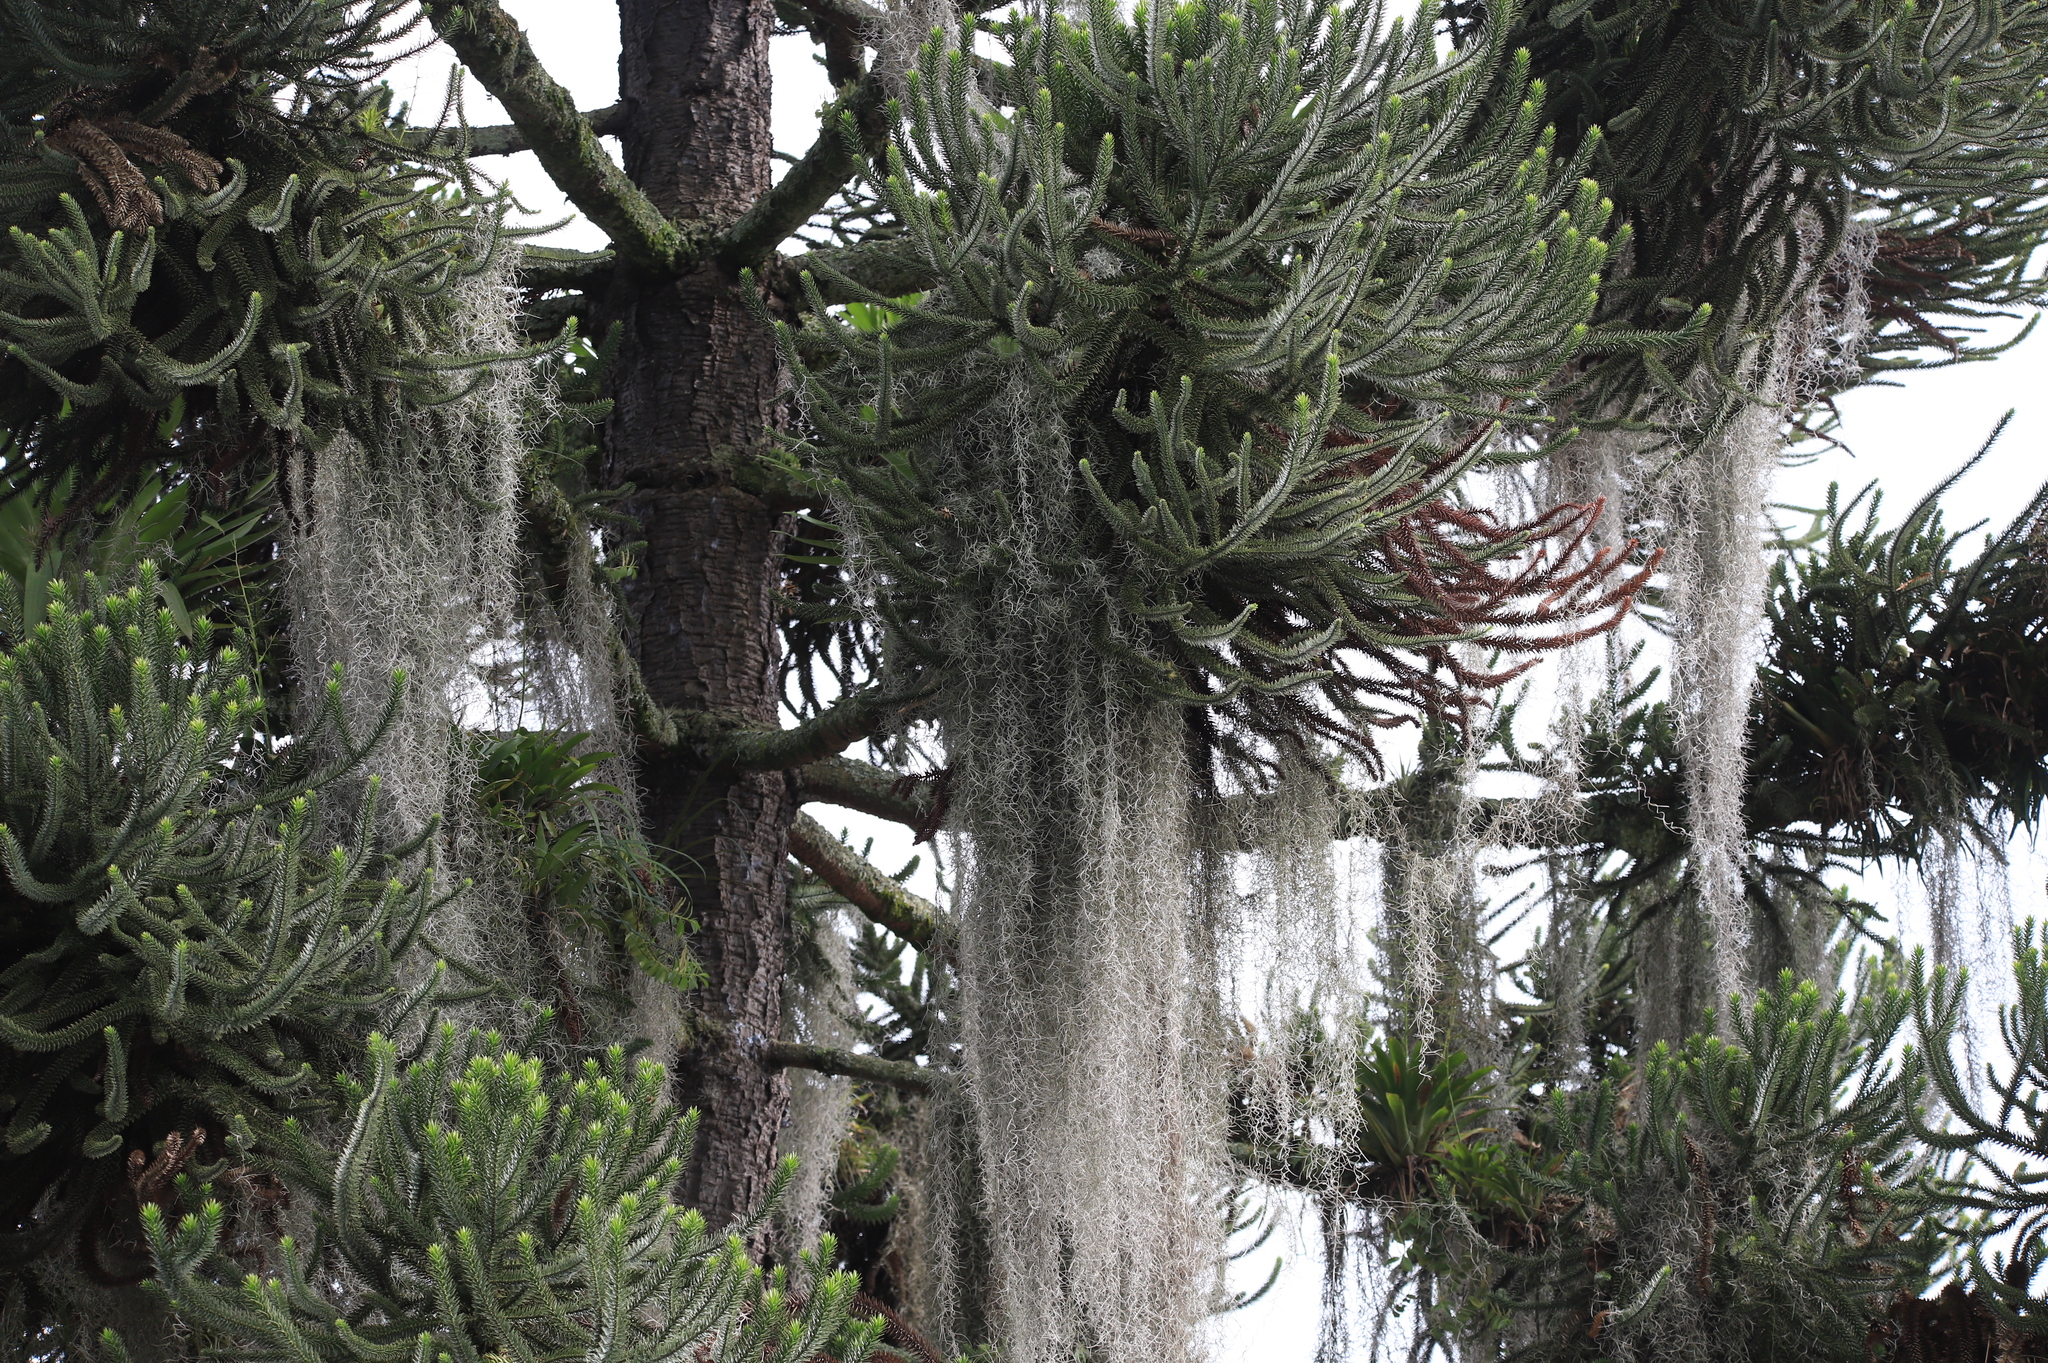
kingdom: Plantae
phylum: Tracheophyta
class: Liliopsida
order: Poales
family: Bromeliaceae
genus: Tillandsia
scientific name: Tillandsia usneoides
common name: Spanish moss
